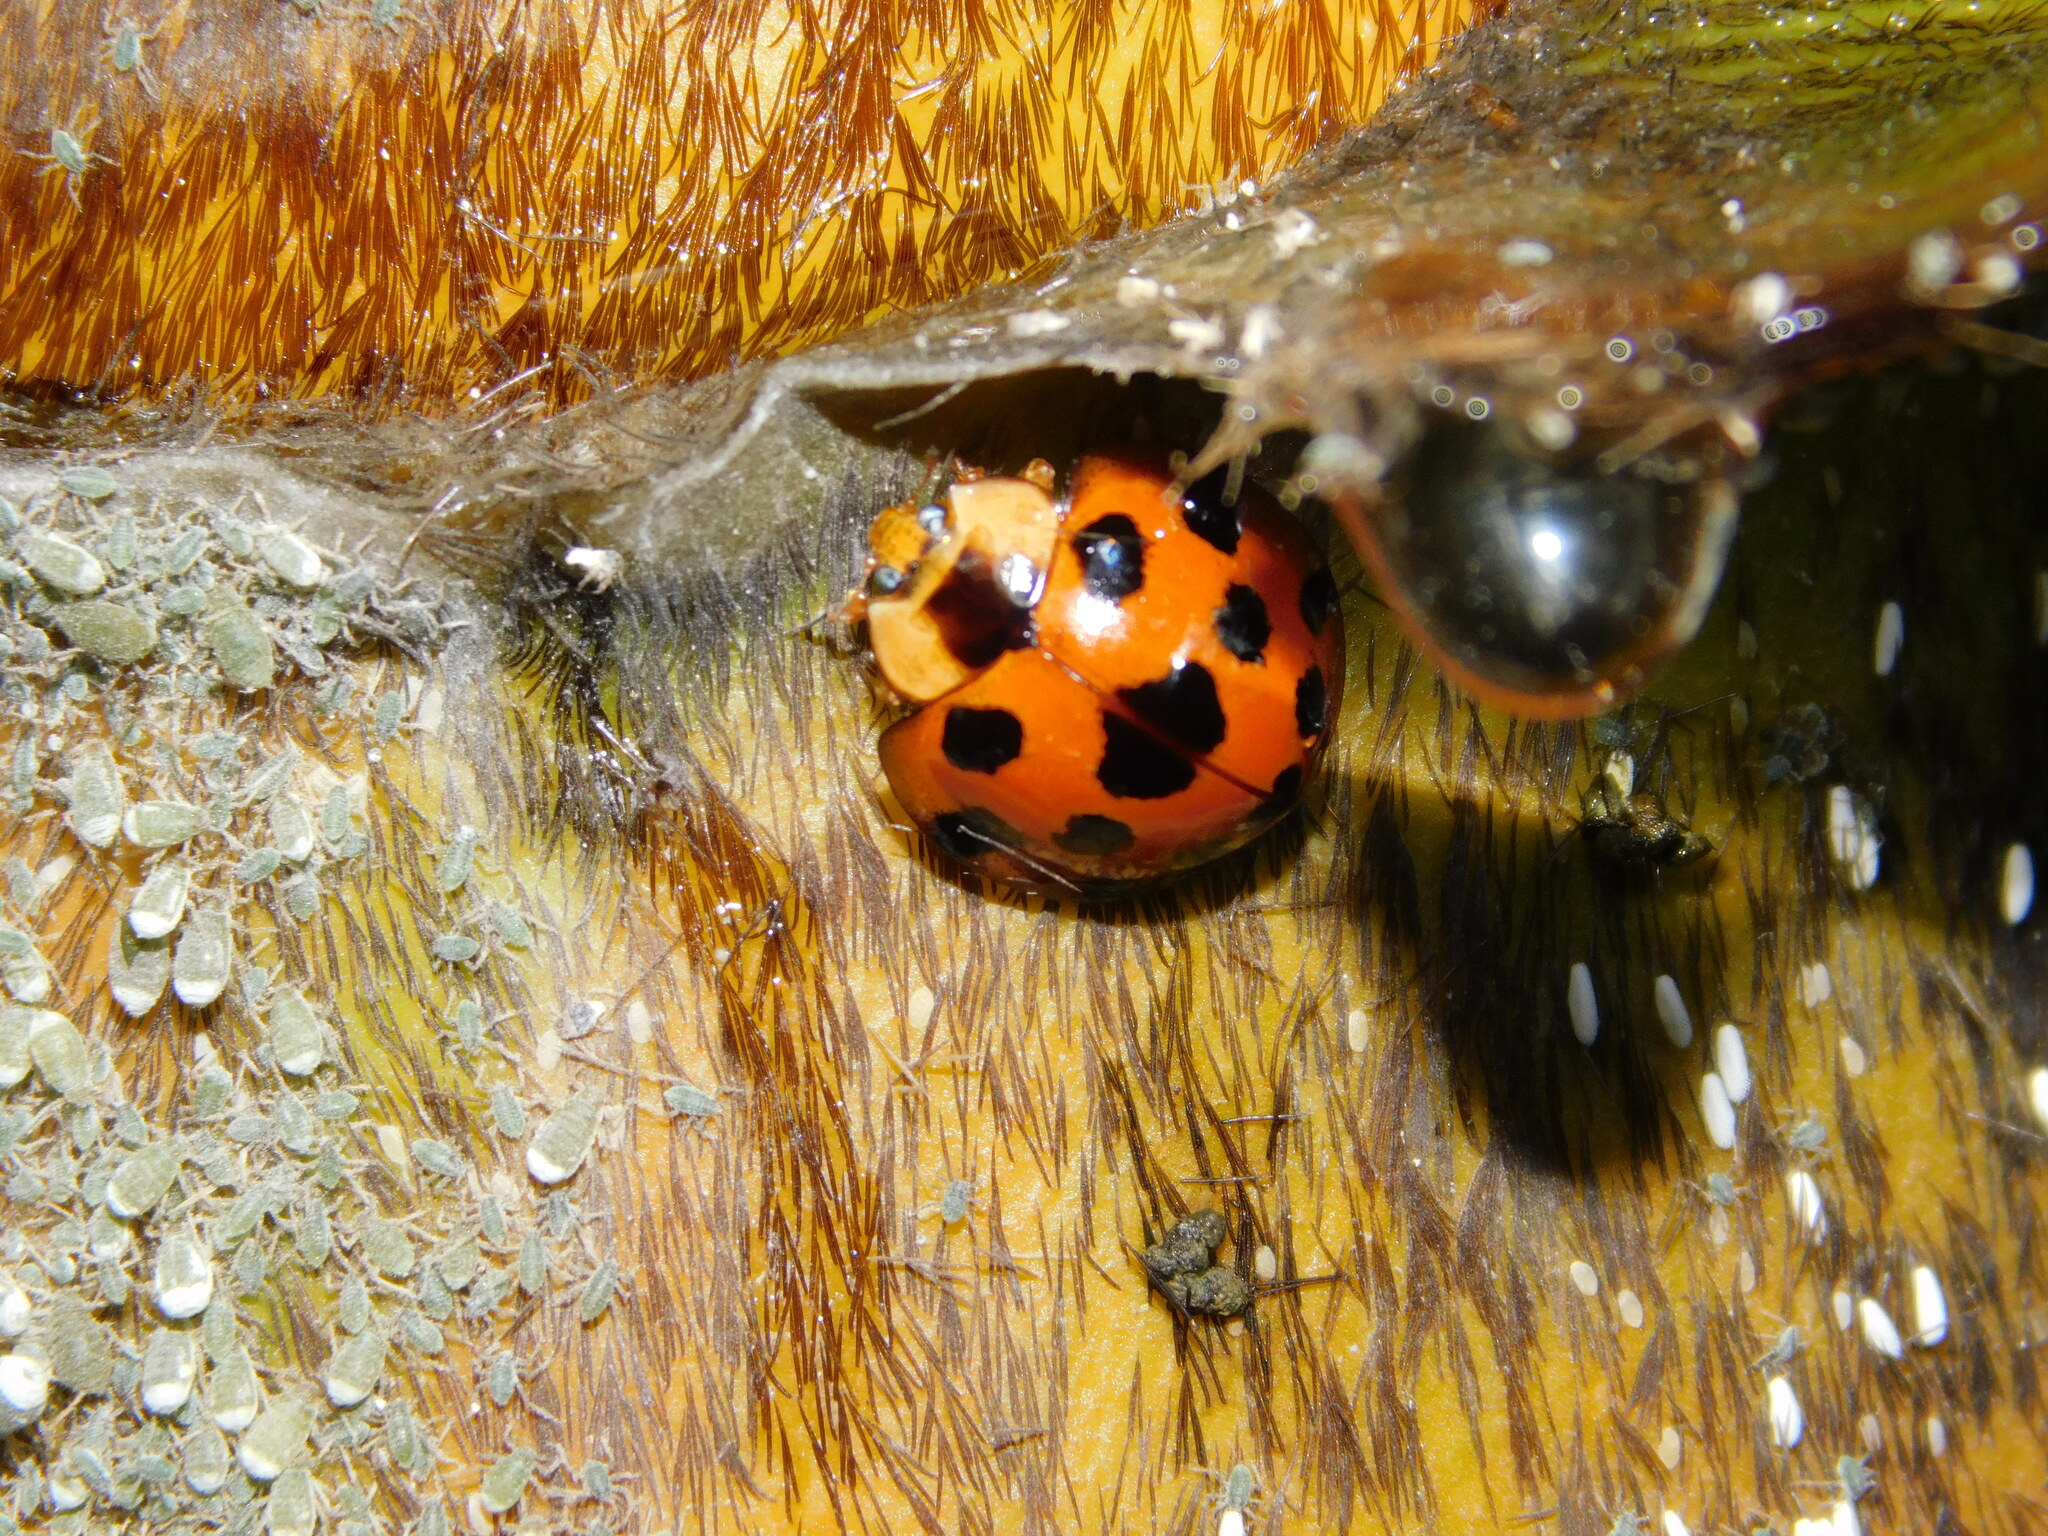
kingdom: Animalia
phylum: Arthropoda
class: Insecta
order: Coleoptera
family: Coccinellidae
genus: Synonycha
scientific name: Synonycha grandis
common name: Lady beetle
